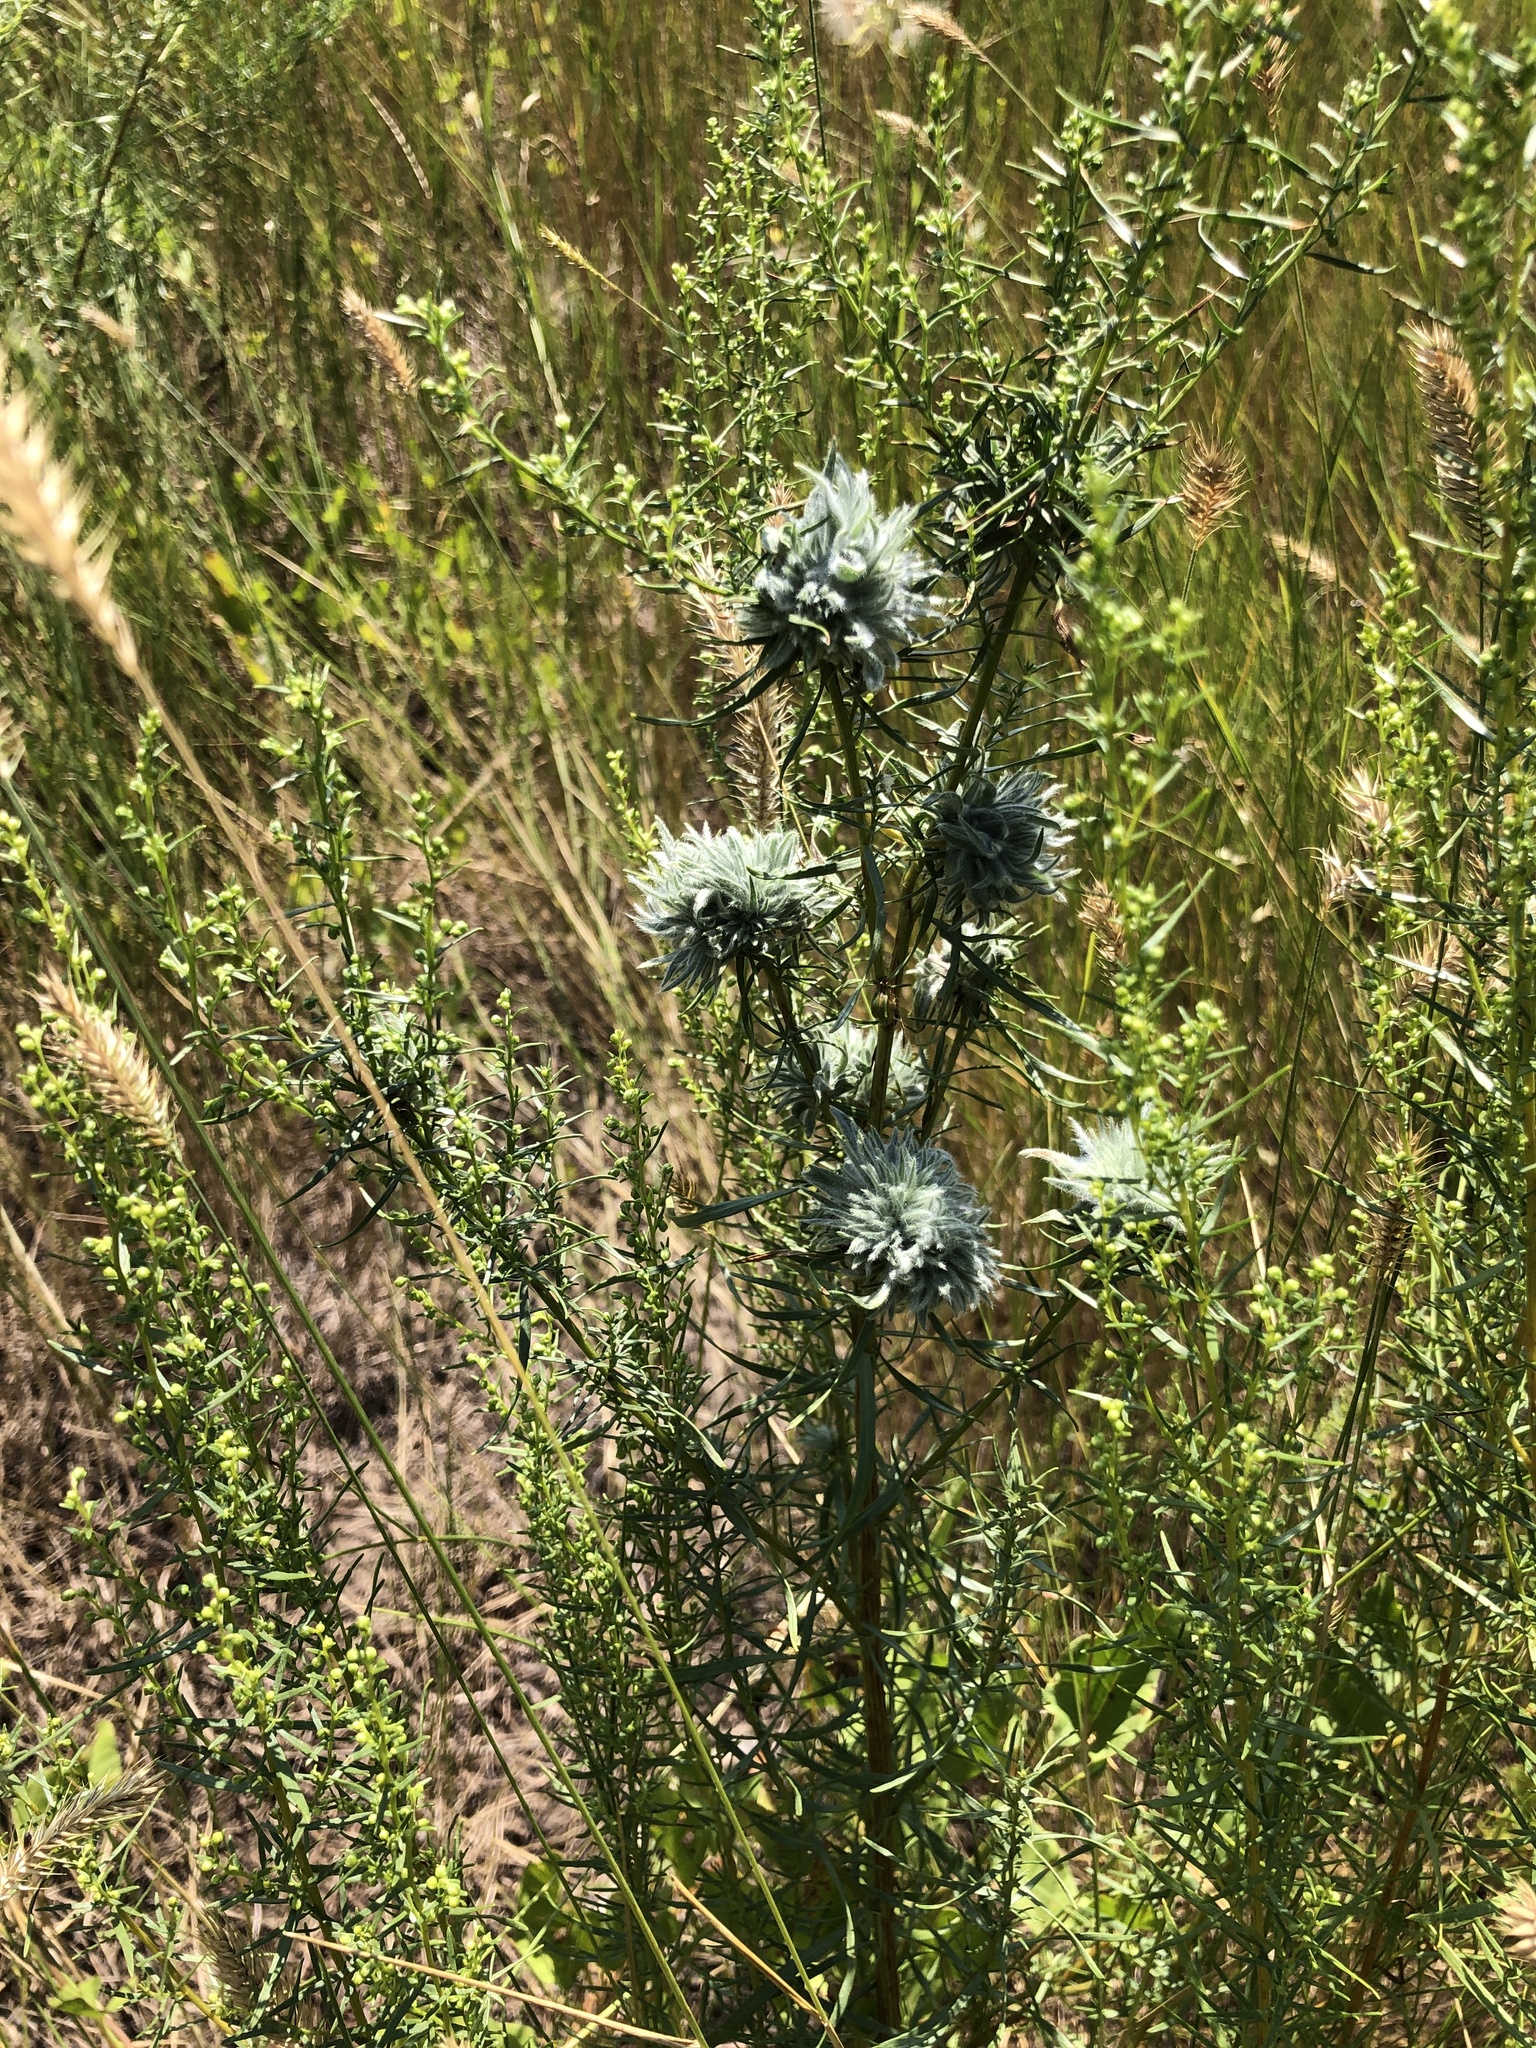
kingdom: Plantae
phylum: Tracheophyta
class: Magnoliopsida
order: Asterales
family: Asteraceae
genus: Artemisia
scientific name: Artemisia dracunculus
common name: Tarragon
